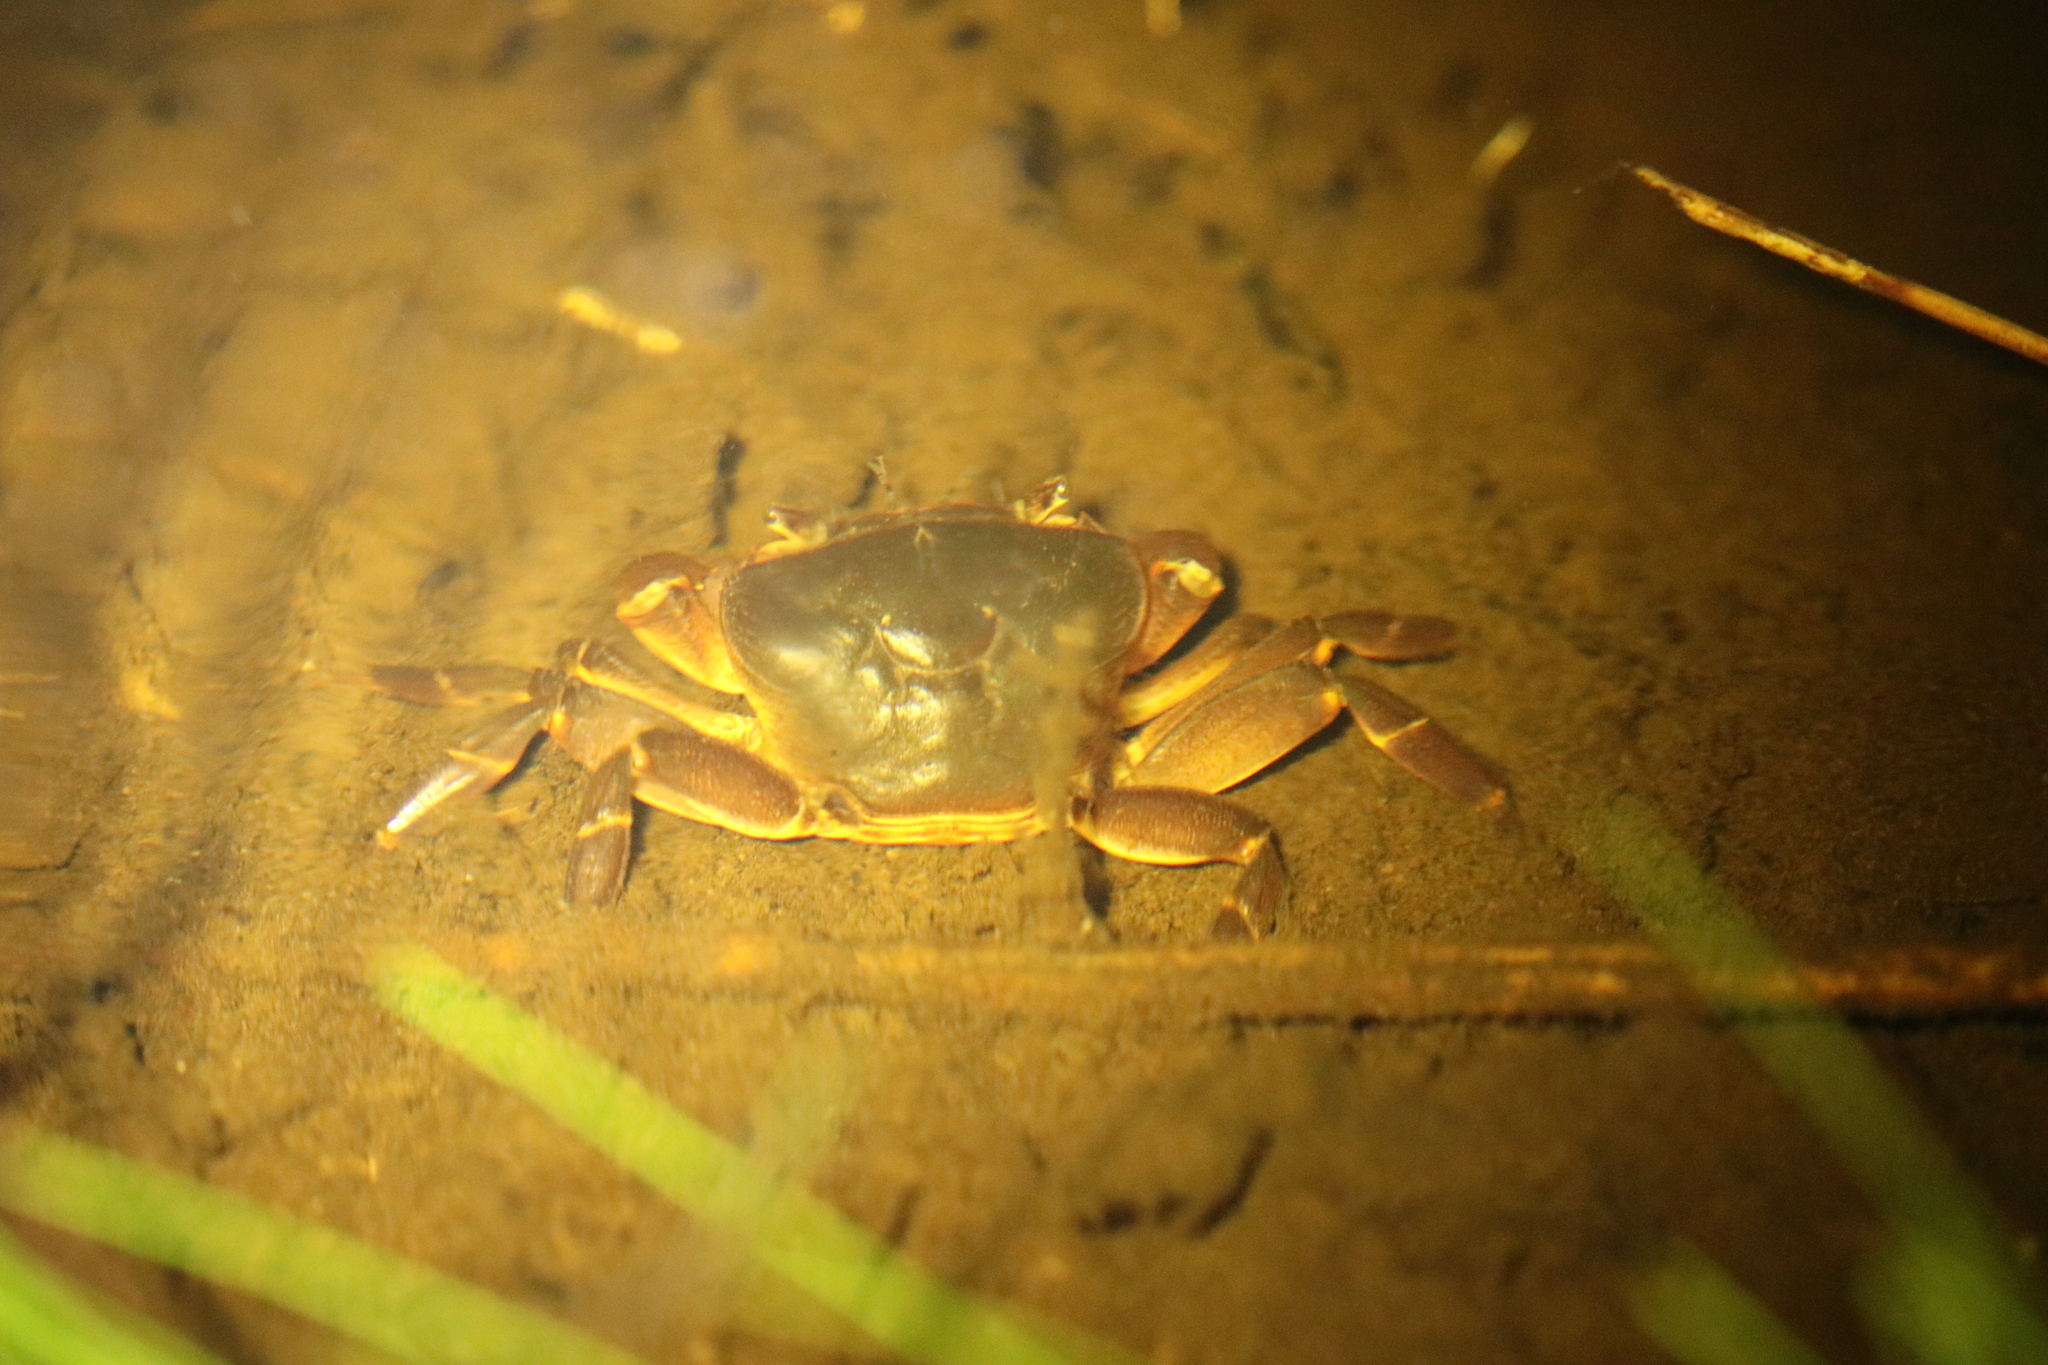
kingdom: Animalia
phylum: Arthropoda
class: Malacostraca
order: Decapoda
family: Potamonautidae
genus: Potamonautes
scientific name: Potamonautes sidneyi
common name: Natal river crab
